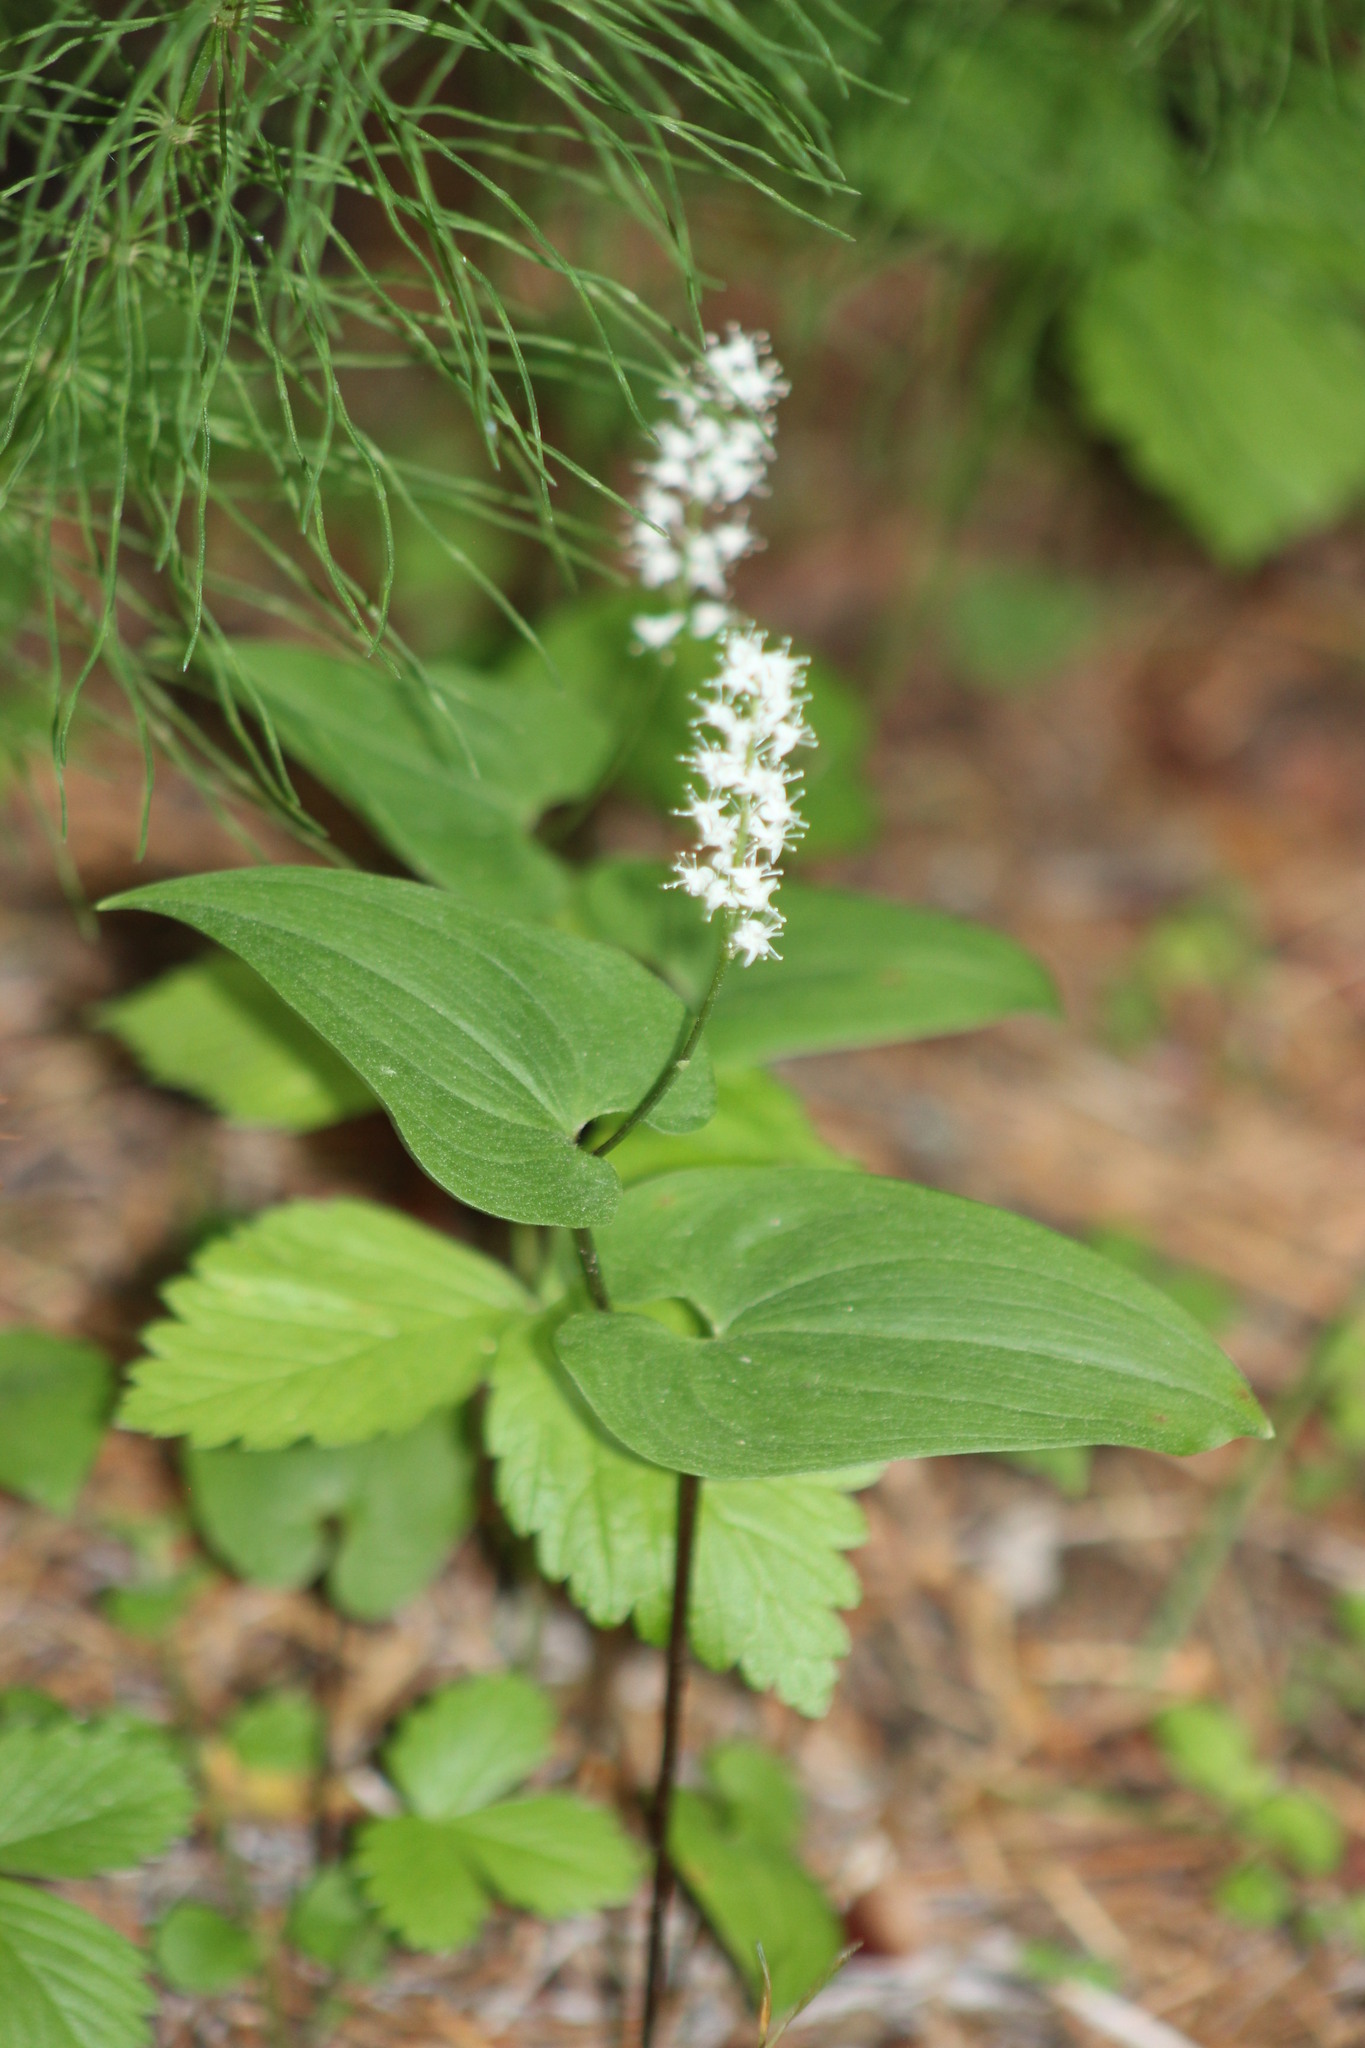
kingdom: Plantae
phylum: Tracheophyta
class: Liliopsida
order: Asparagales
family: Asparagaceae
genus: Maianthemum
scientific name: Maianthemum bifolium
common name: May lily
